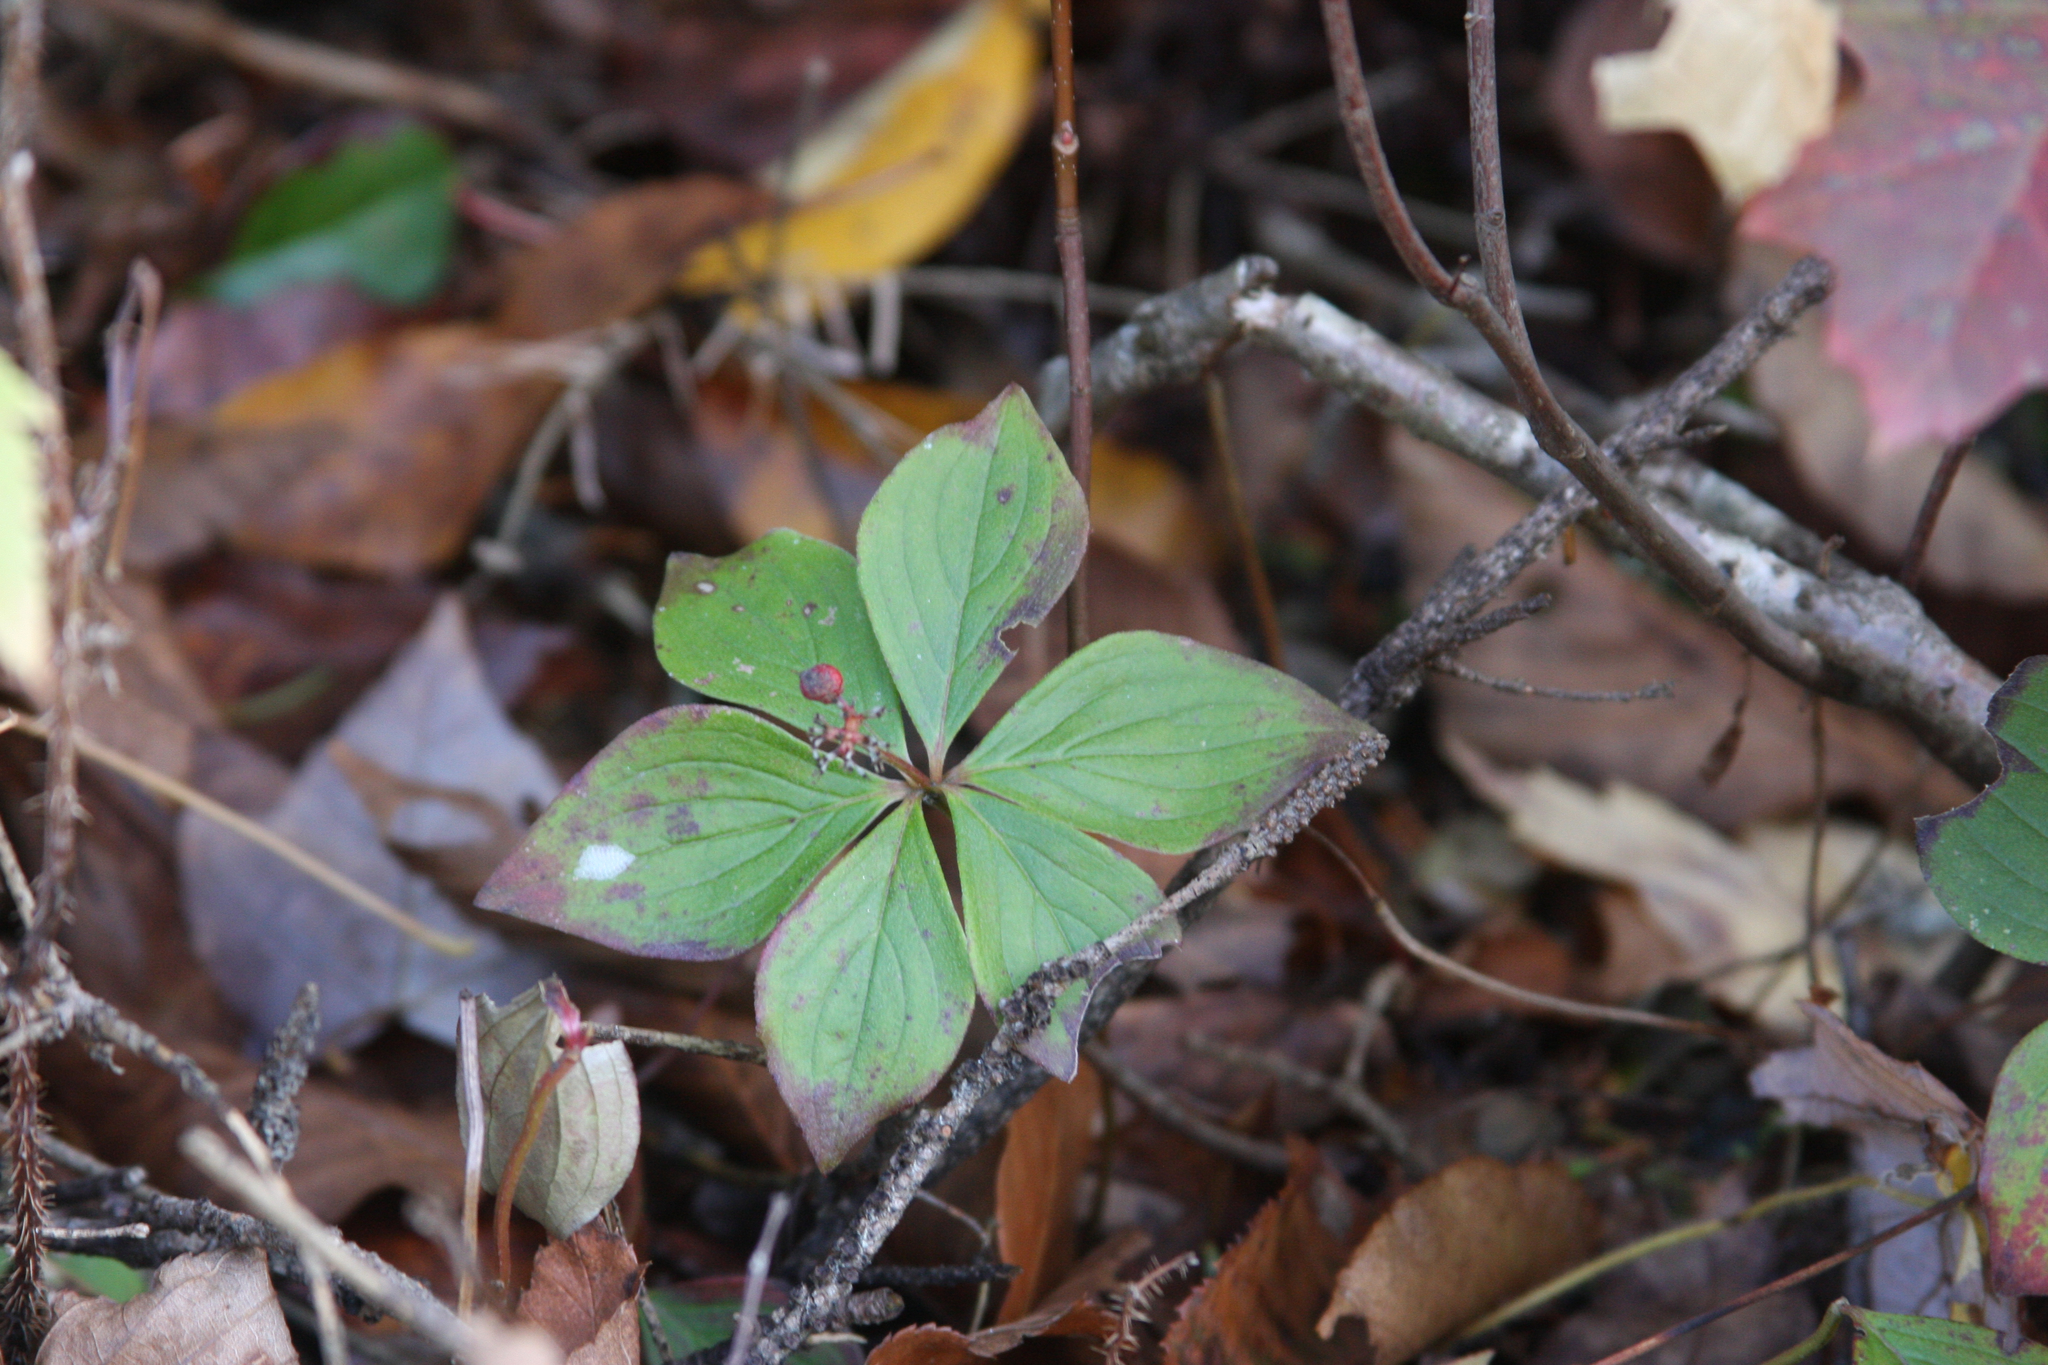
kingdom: Plantae
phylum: Tracheophyta
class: Magnoliopsida
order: Cornales
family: Cornaceae
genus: Cornus
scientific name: Cornus canadensis
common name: Creeping dogwood
